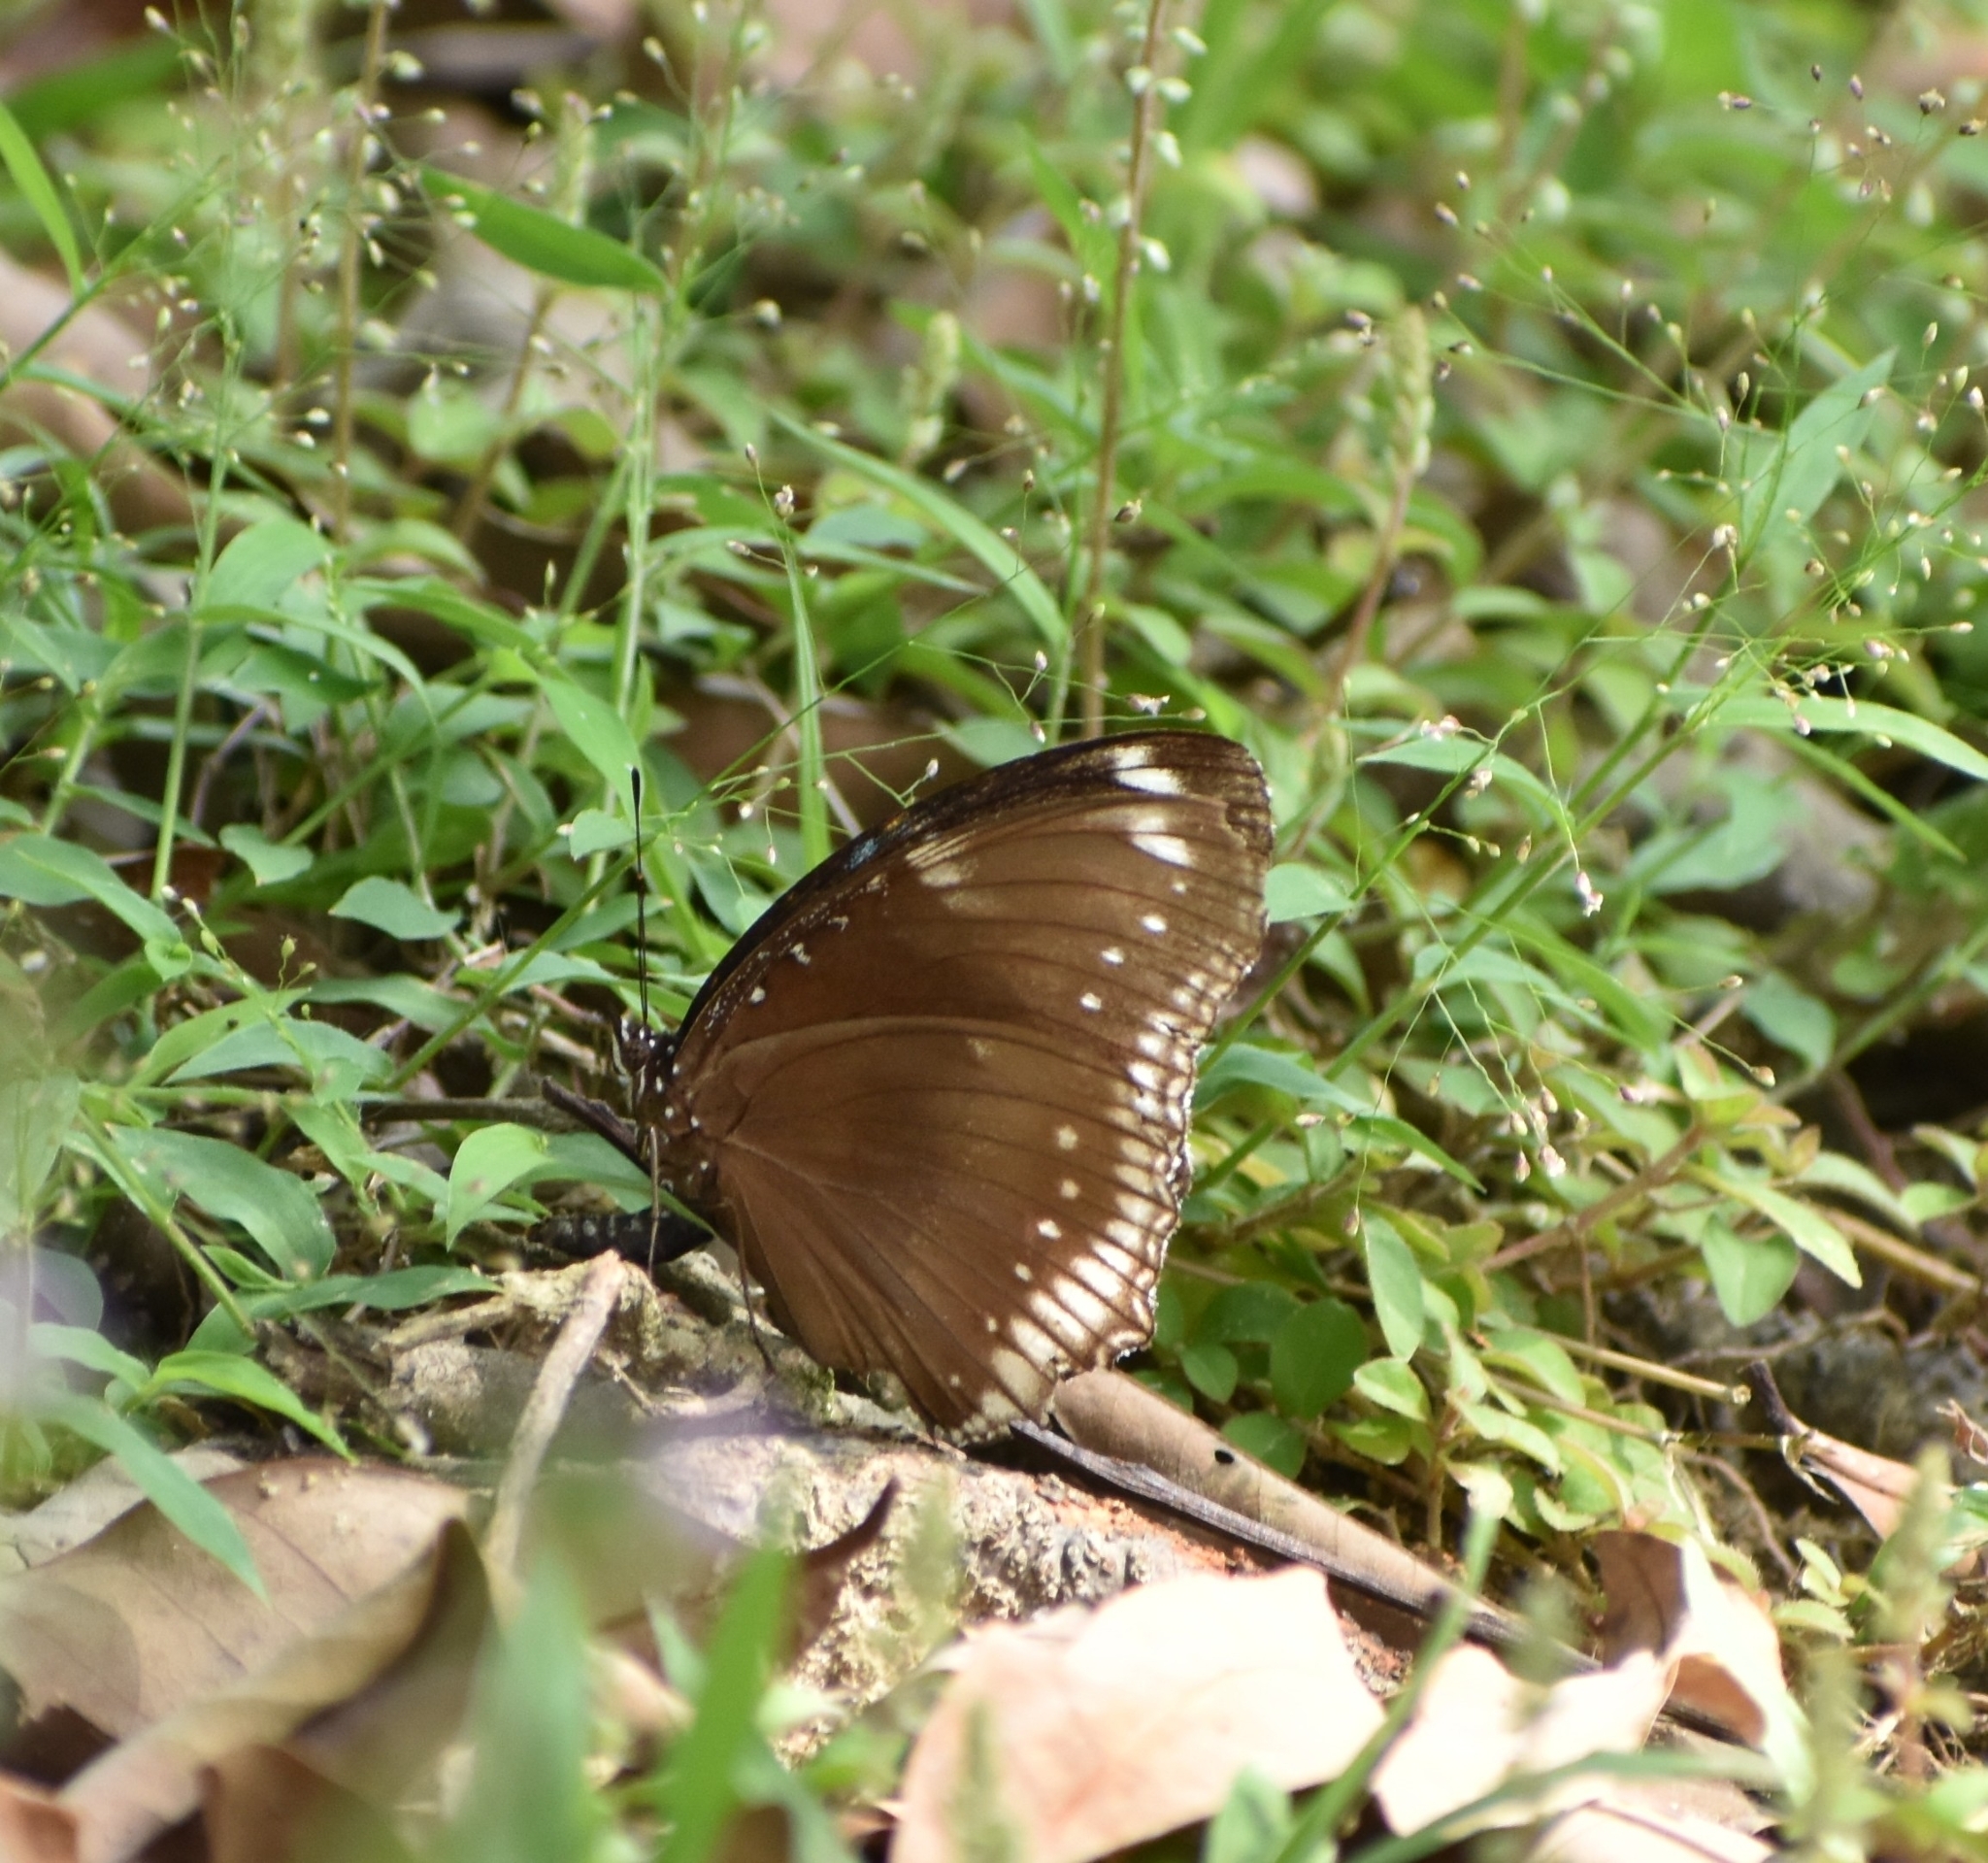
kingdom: Animalia
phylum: Arthropoda
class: Insecta
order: Lepidoptera
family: Nymphalidae
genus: Hypolimnas
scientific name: Hypolimnas bolina
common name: Great eggfly
